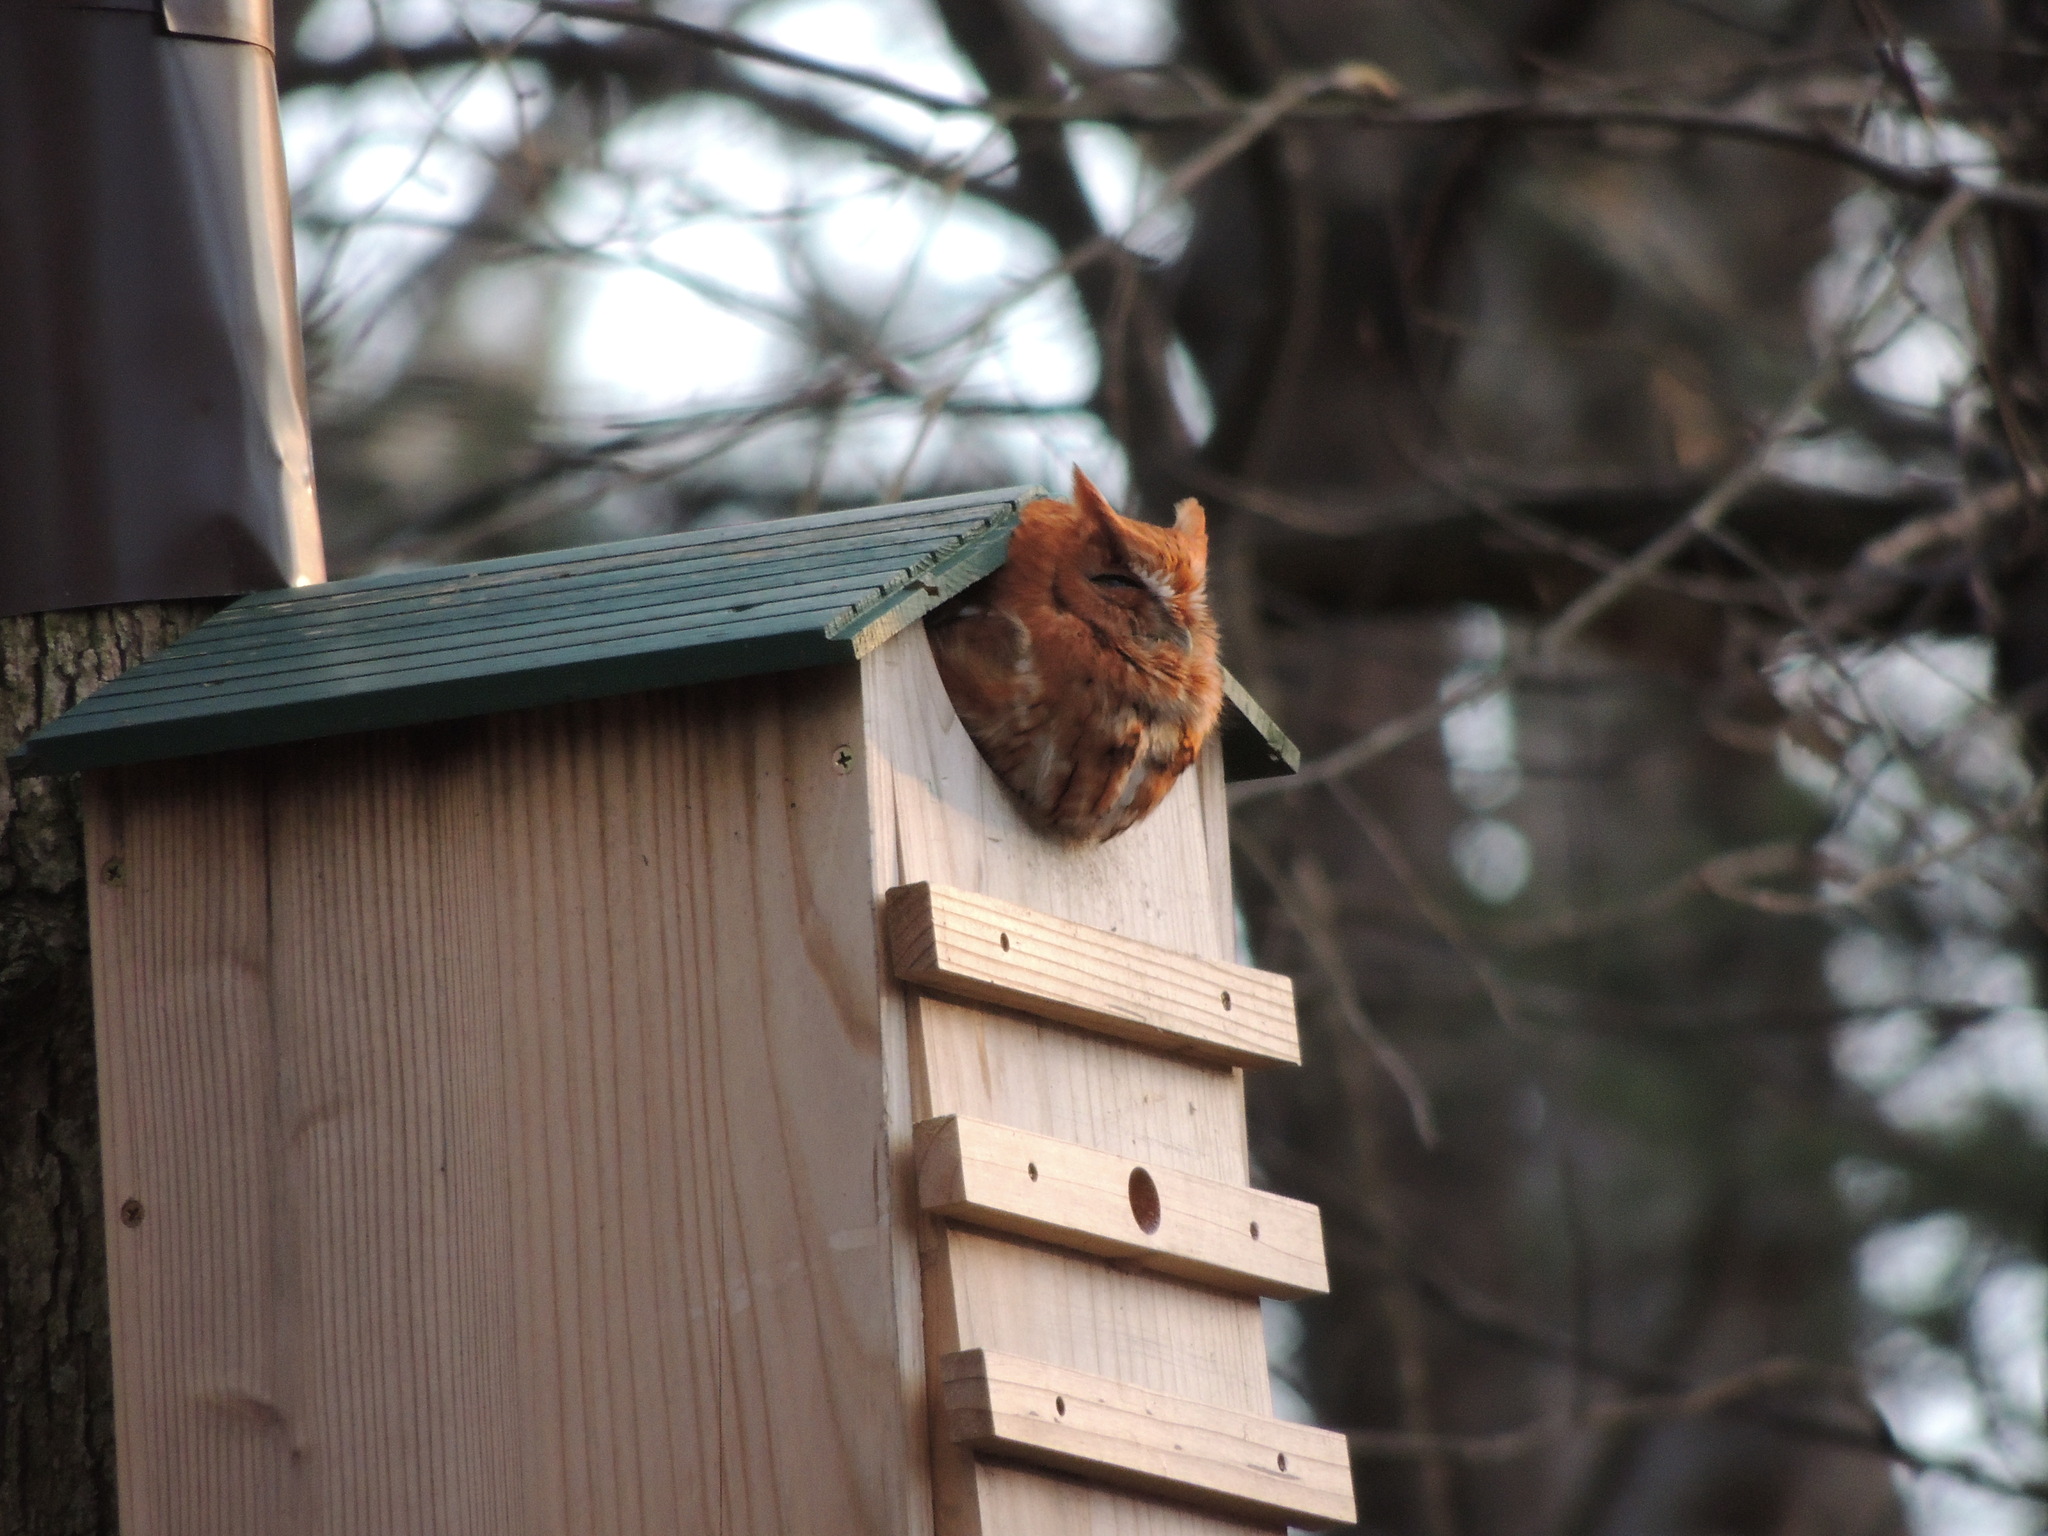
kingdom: Animalia
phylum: Chordata
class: Aves
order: Strigiformes
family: Strigidae
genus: Megascops
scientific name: Megascops asio
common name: Eastern screech-owl
